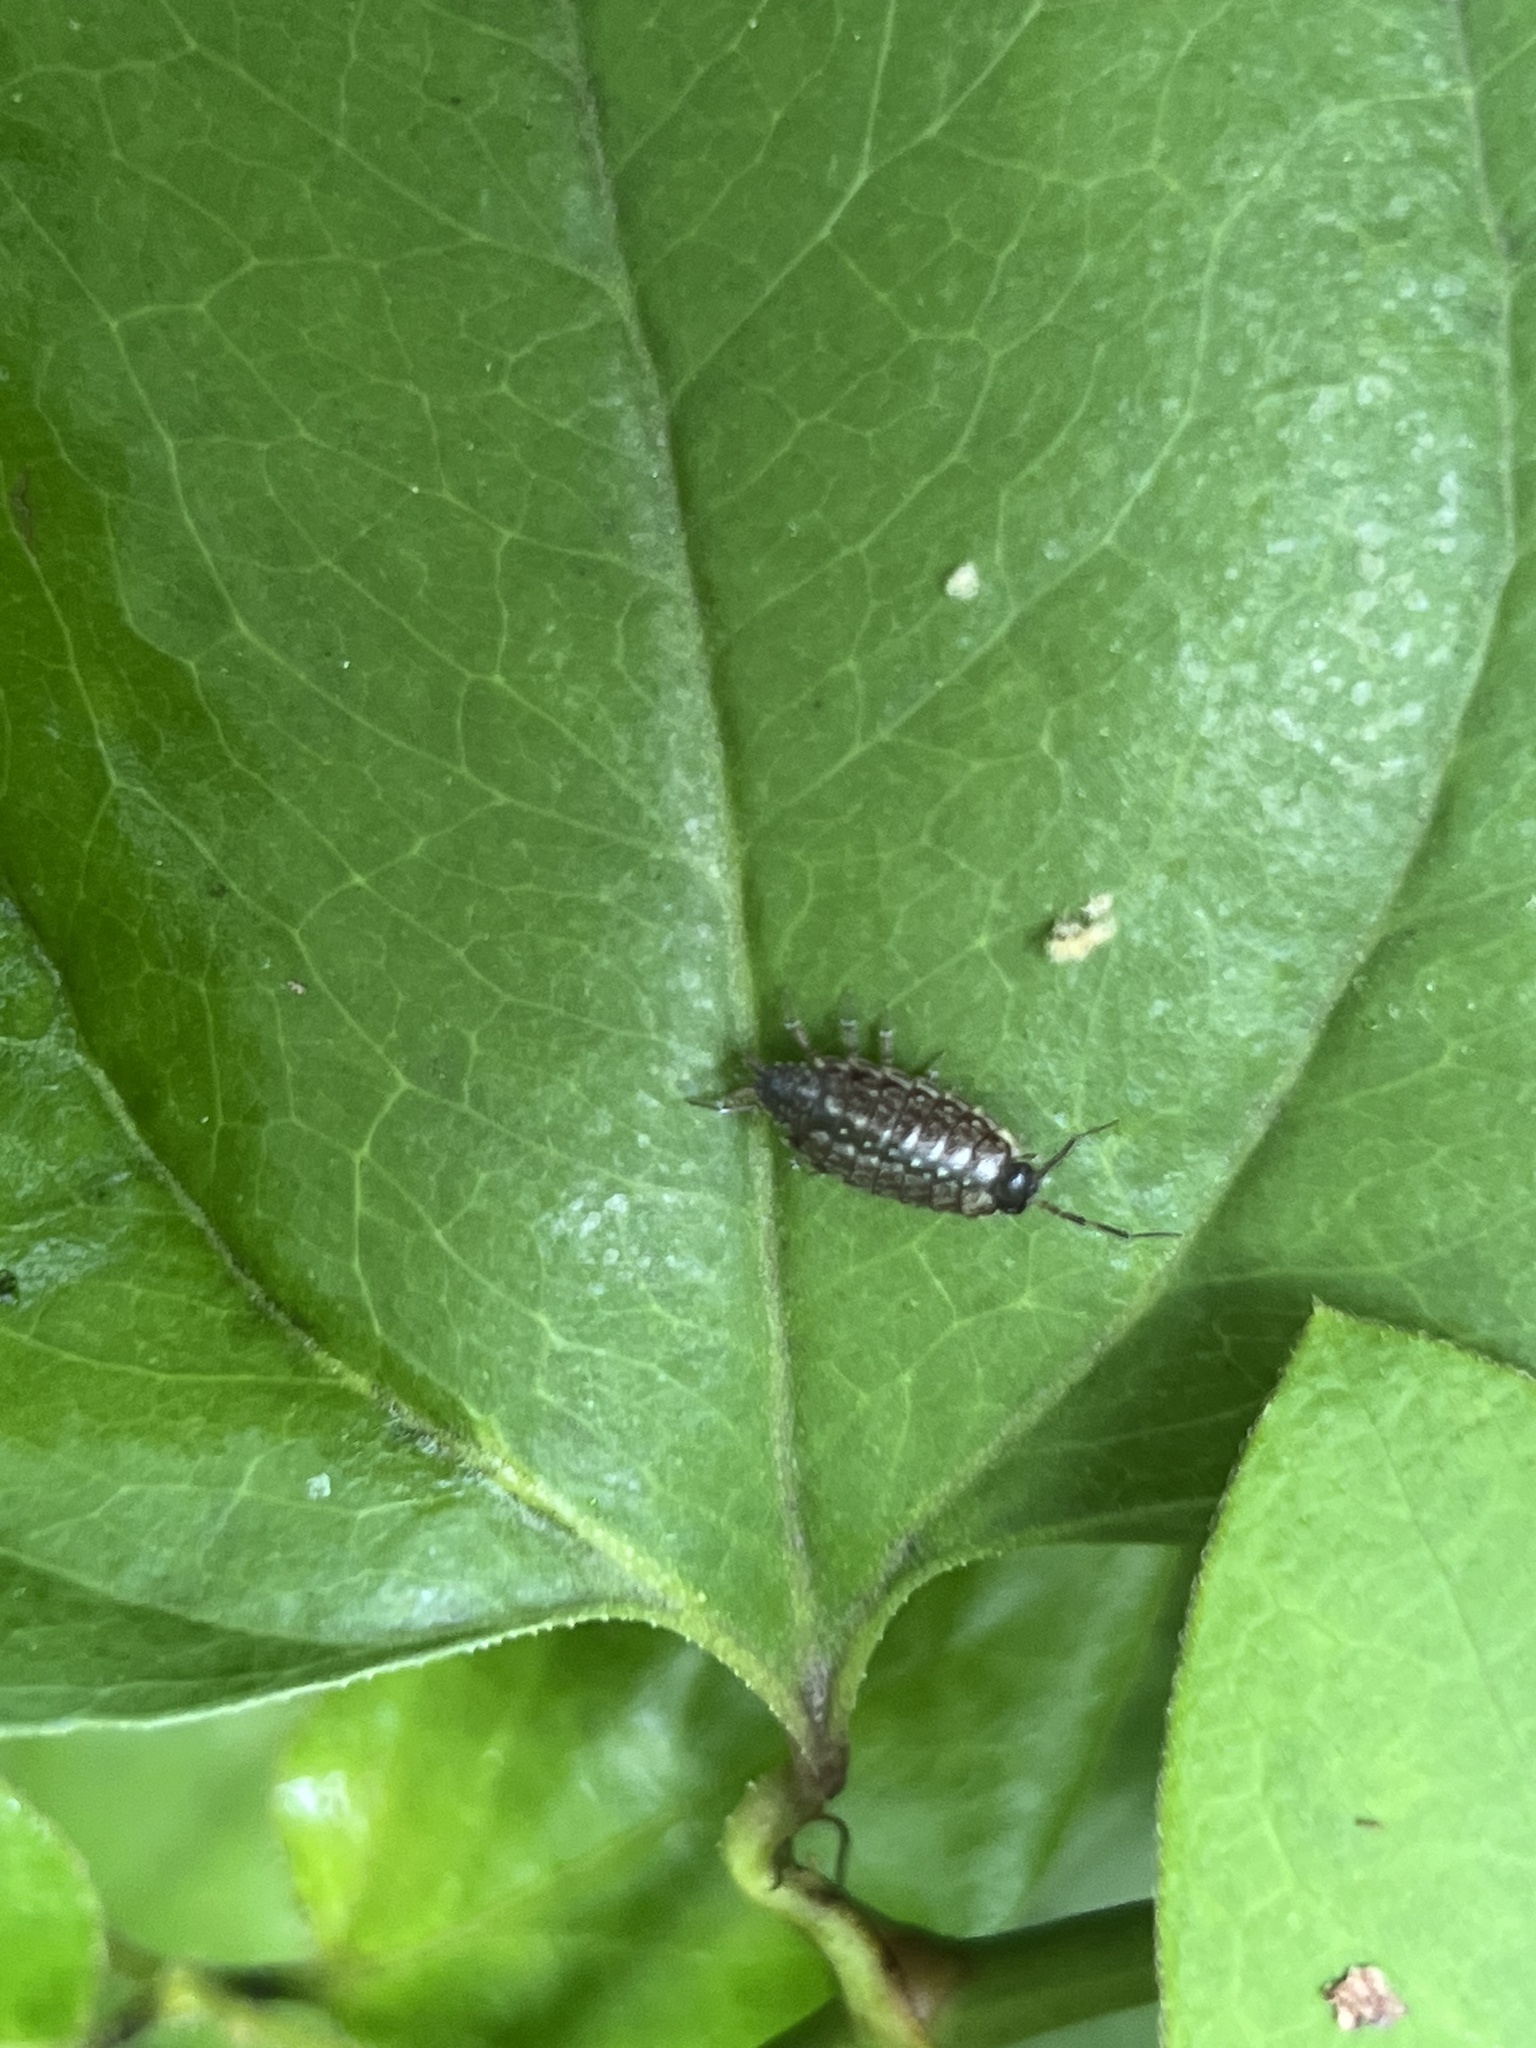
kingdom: Animalia
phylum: Arthropoda
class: Malacostraca
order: Isopoda
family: Philosciidae
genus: Philoscia
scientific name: Philoscia muscorum
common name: Common striped woodlouse
